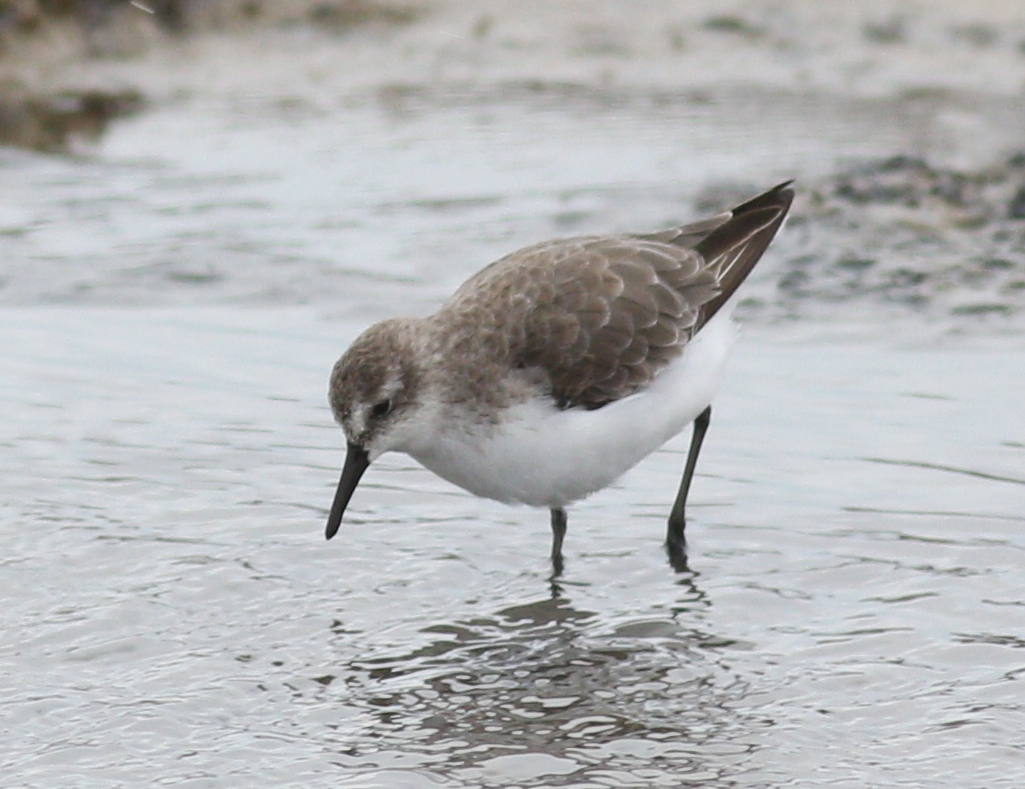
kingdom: Animalia
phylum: Chordata
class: Aves
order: Charadriiformes
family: Scolopacidae
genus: Calidris
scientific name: Calidris pusilla
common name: Semipalmated sandpiper
